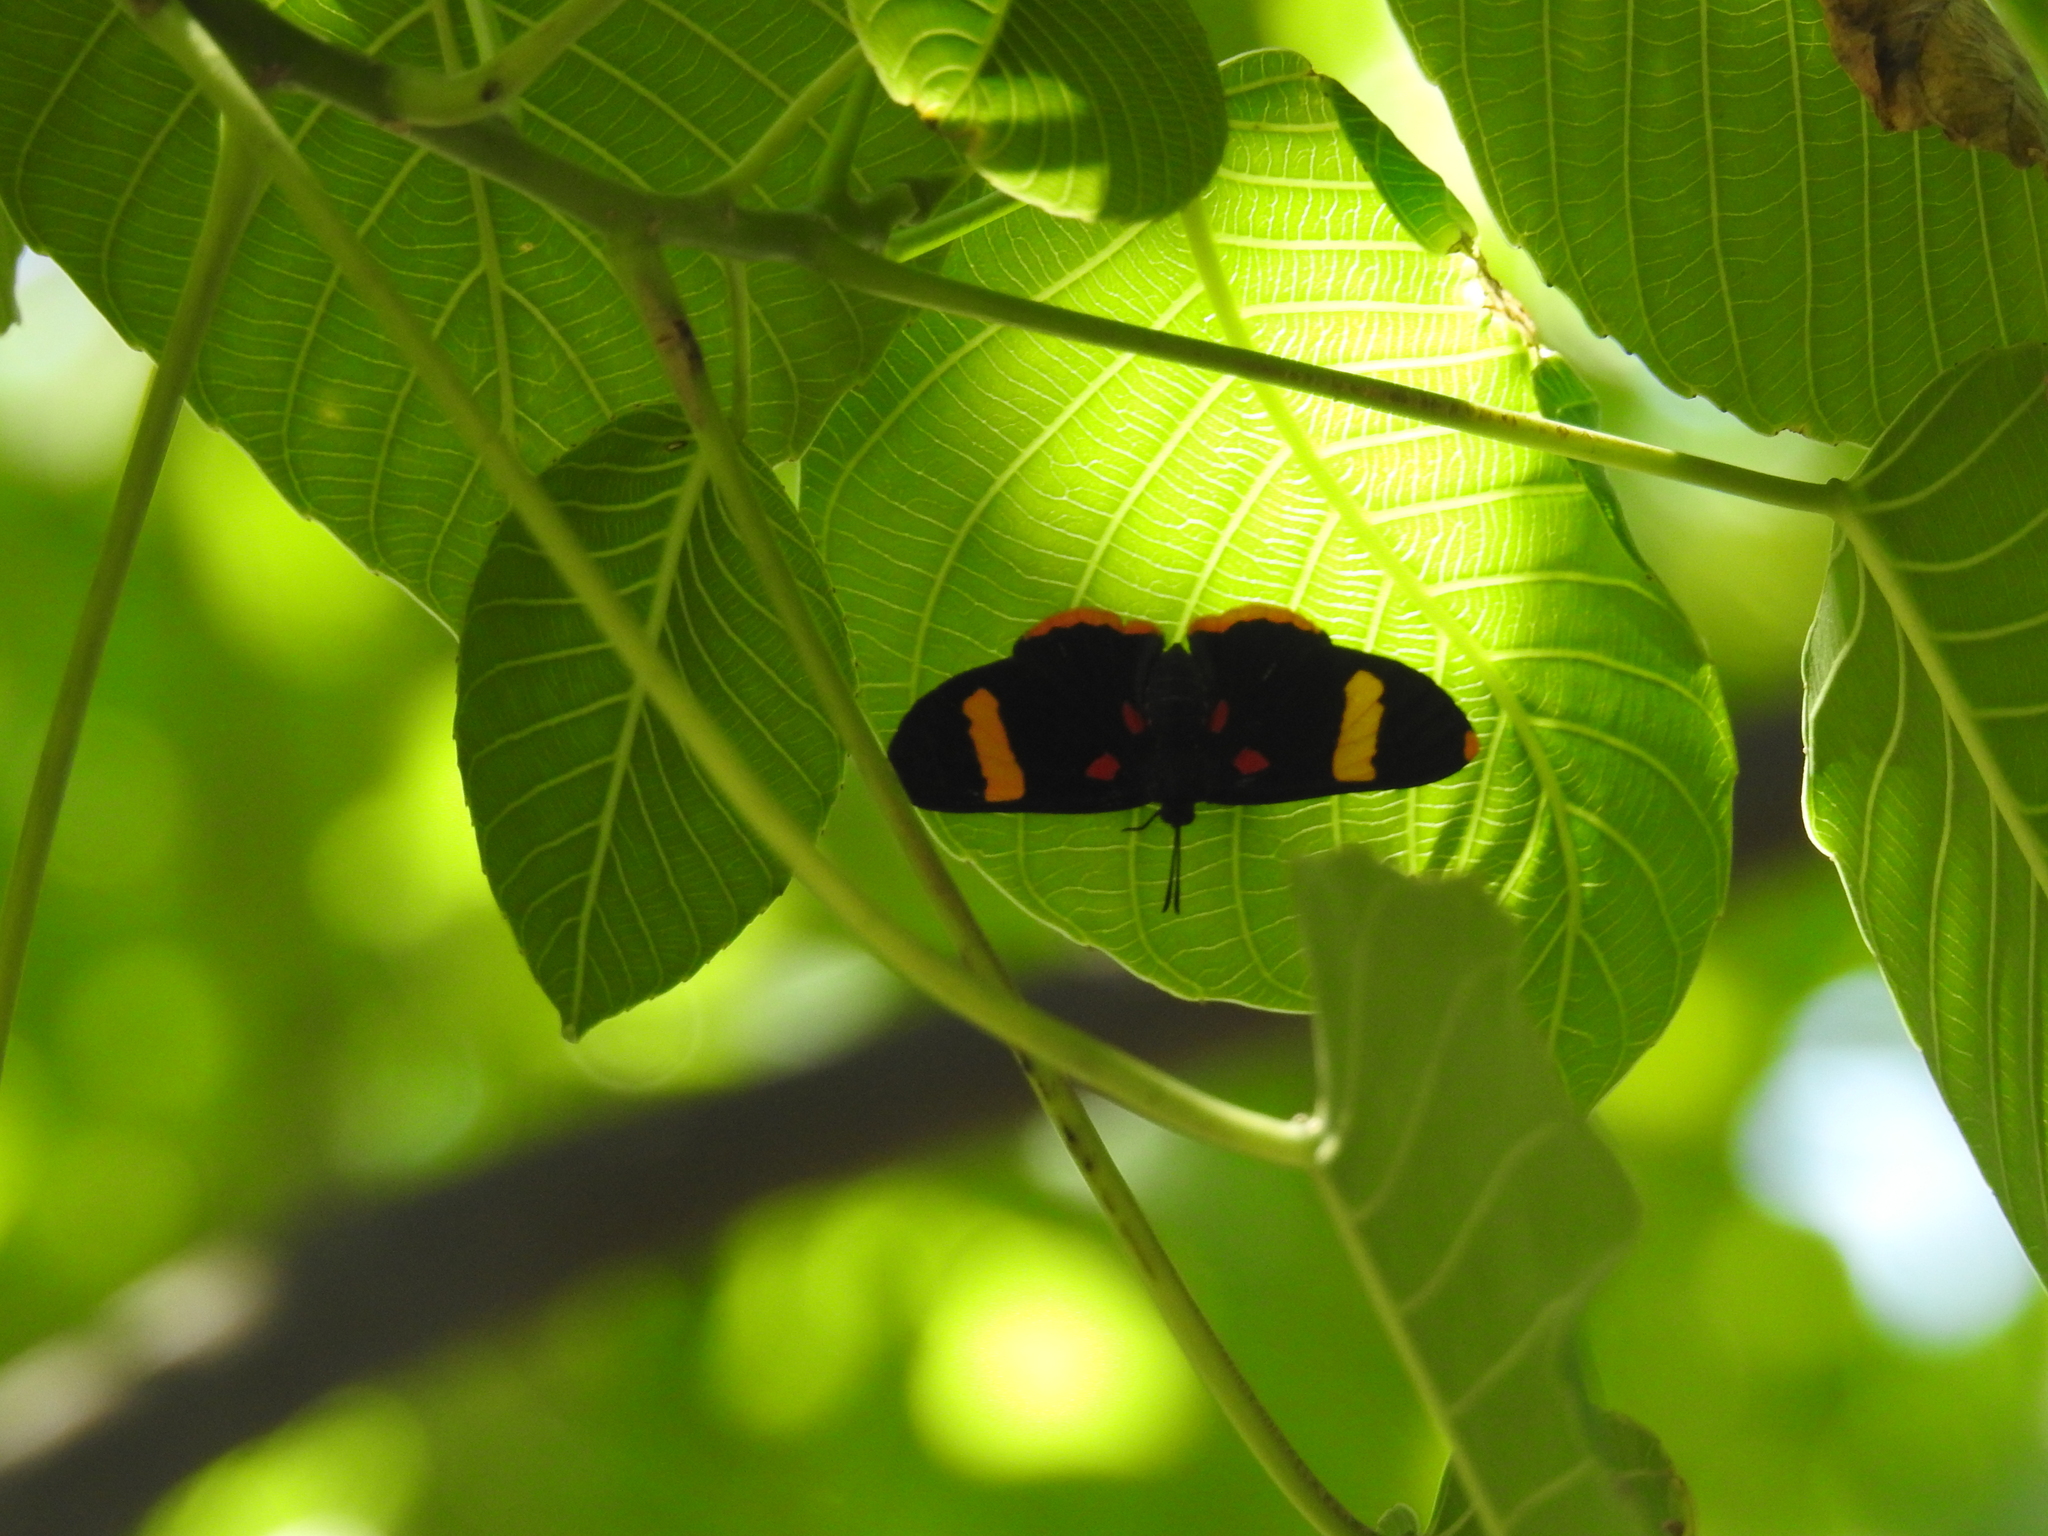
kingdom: Animalia
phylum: Arthropoda
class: Insecta
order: Lepidoptera
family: Lycaenidae
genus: Melanis
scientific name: Melanis electron
